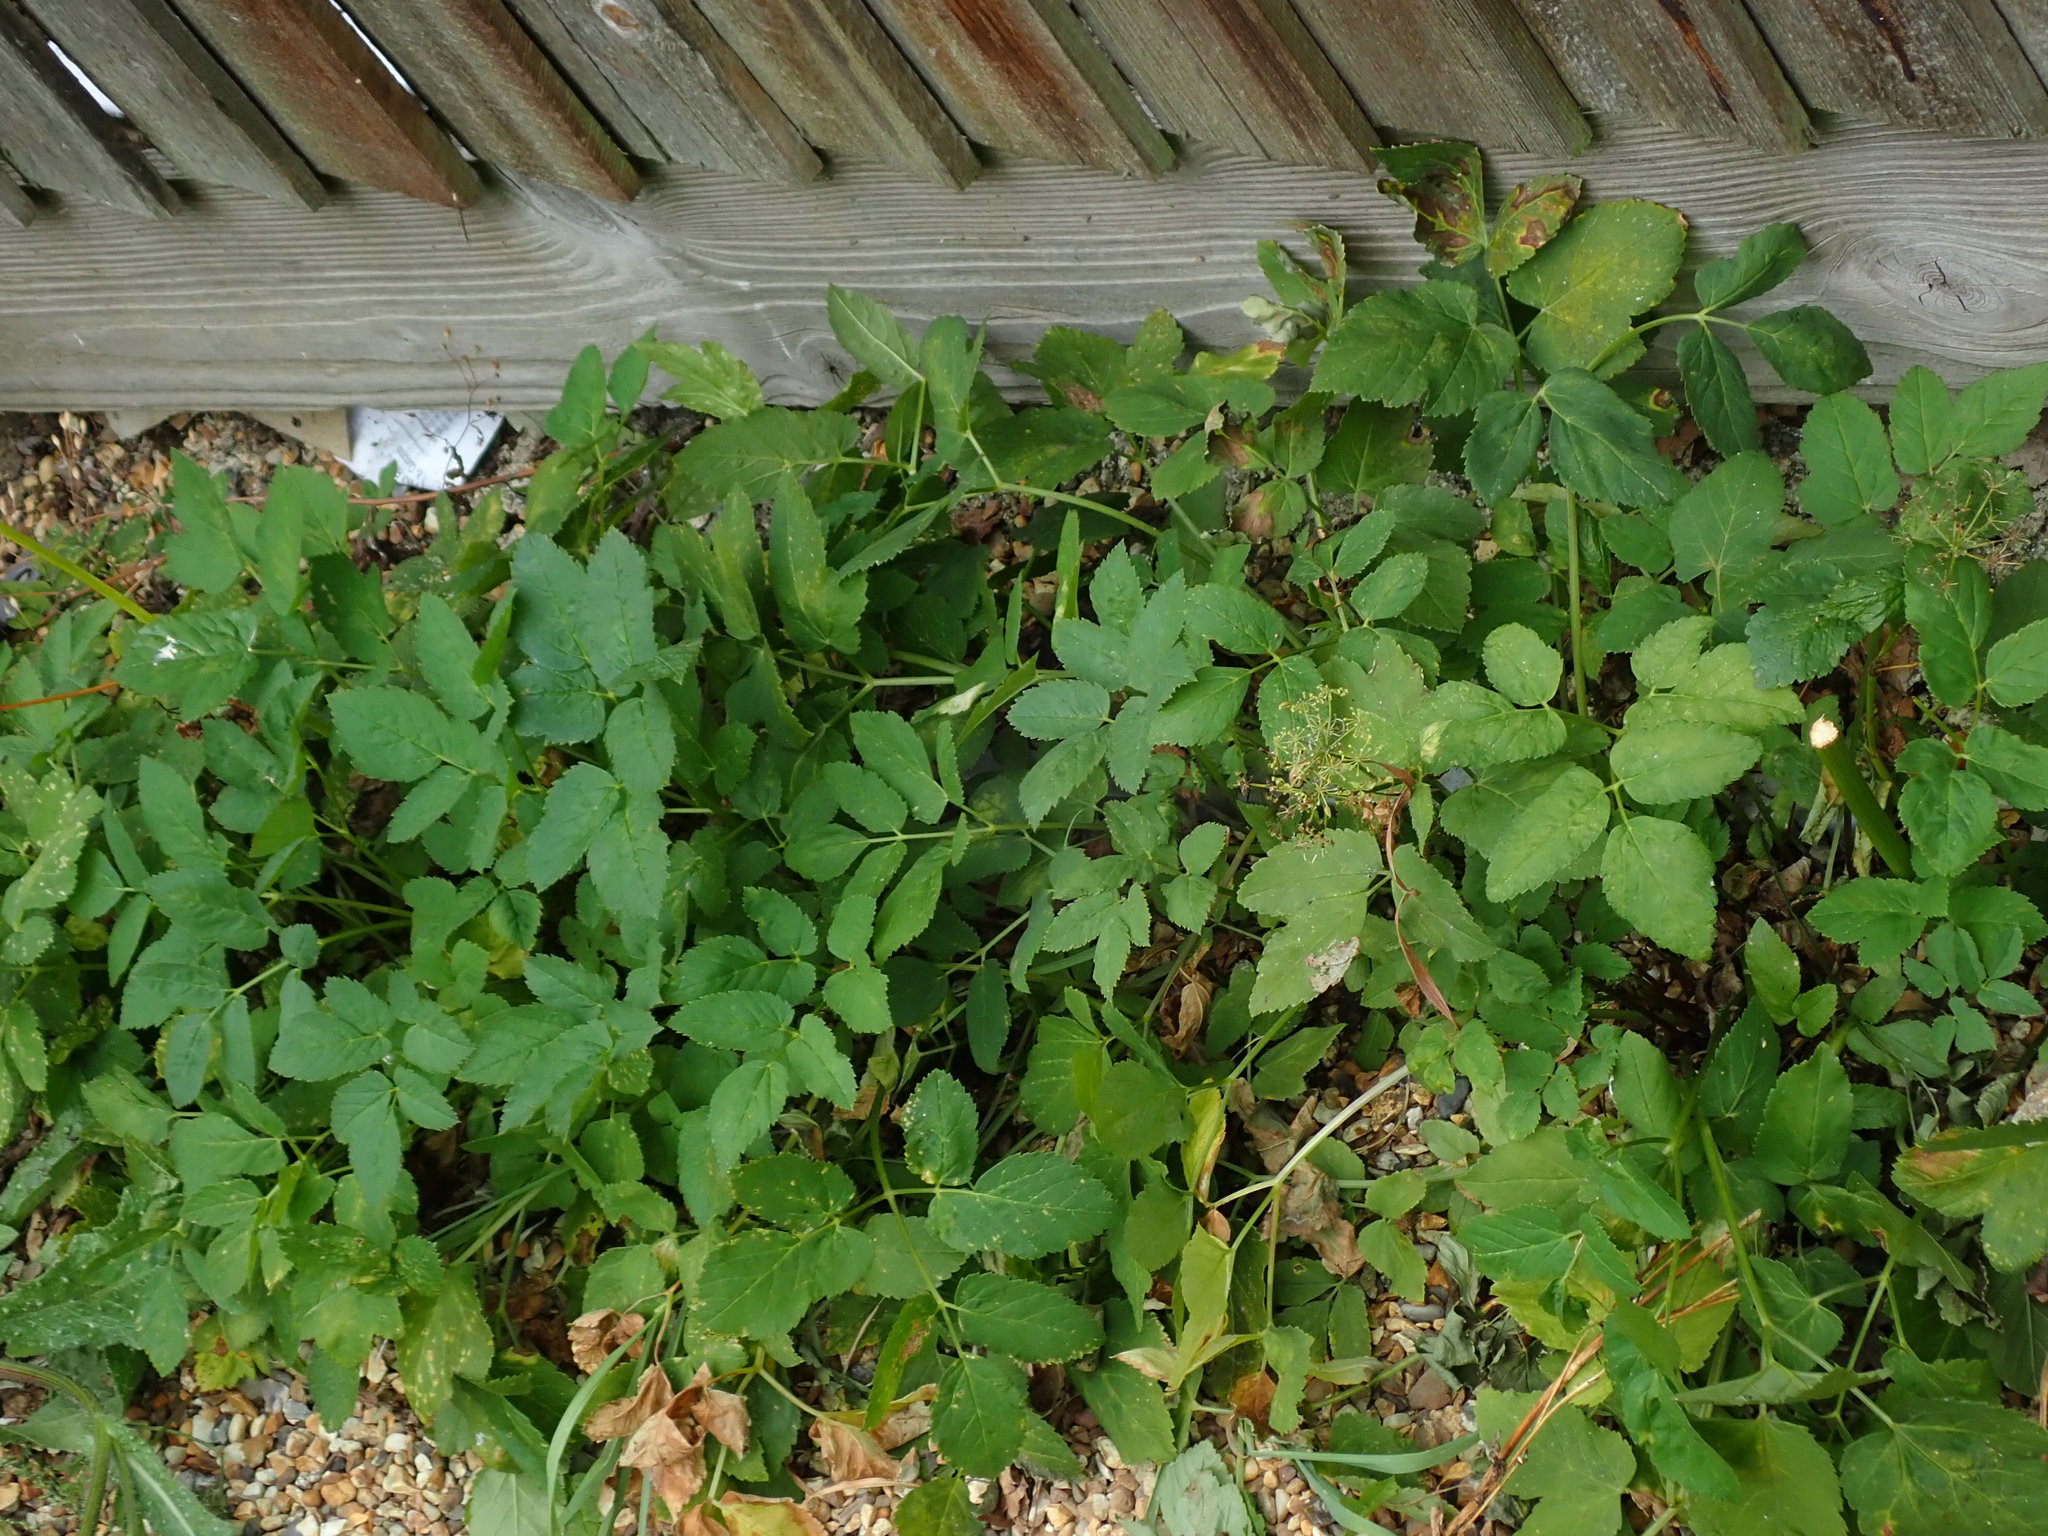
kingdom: Plantae
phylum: Tracheophyta
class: Magnoliopsida
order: Apiales
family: Apiaceae
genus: Aegopodium
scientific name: Aegopodium podagraria
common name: Ground-elder
